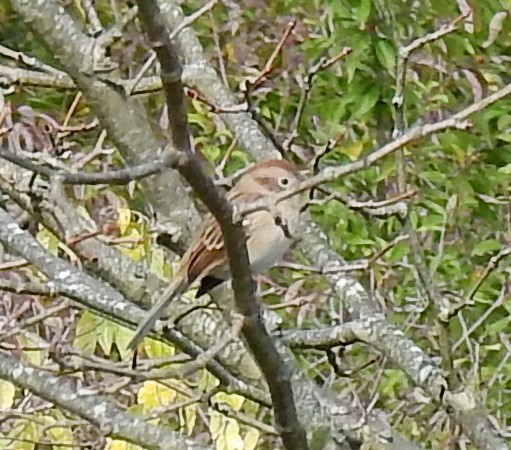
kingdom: Animalia
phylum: Chordata
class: Aves
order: Passeriformes
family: Passerellidae
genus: Spizella
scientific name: Spizella pusilla
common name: Field sparrow
